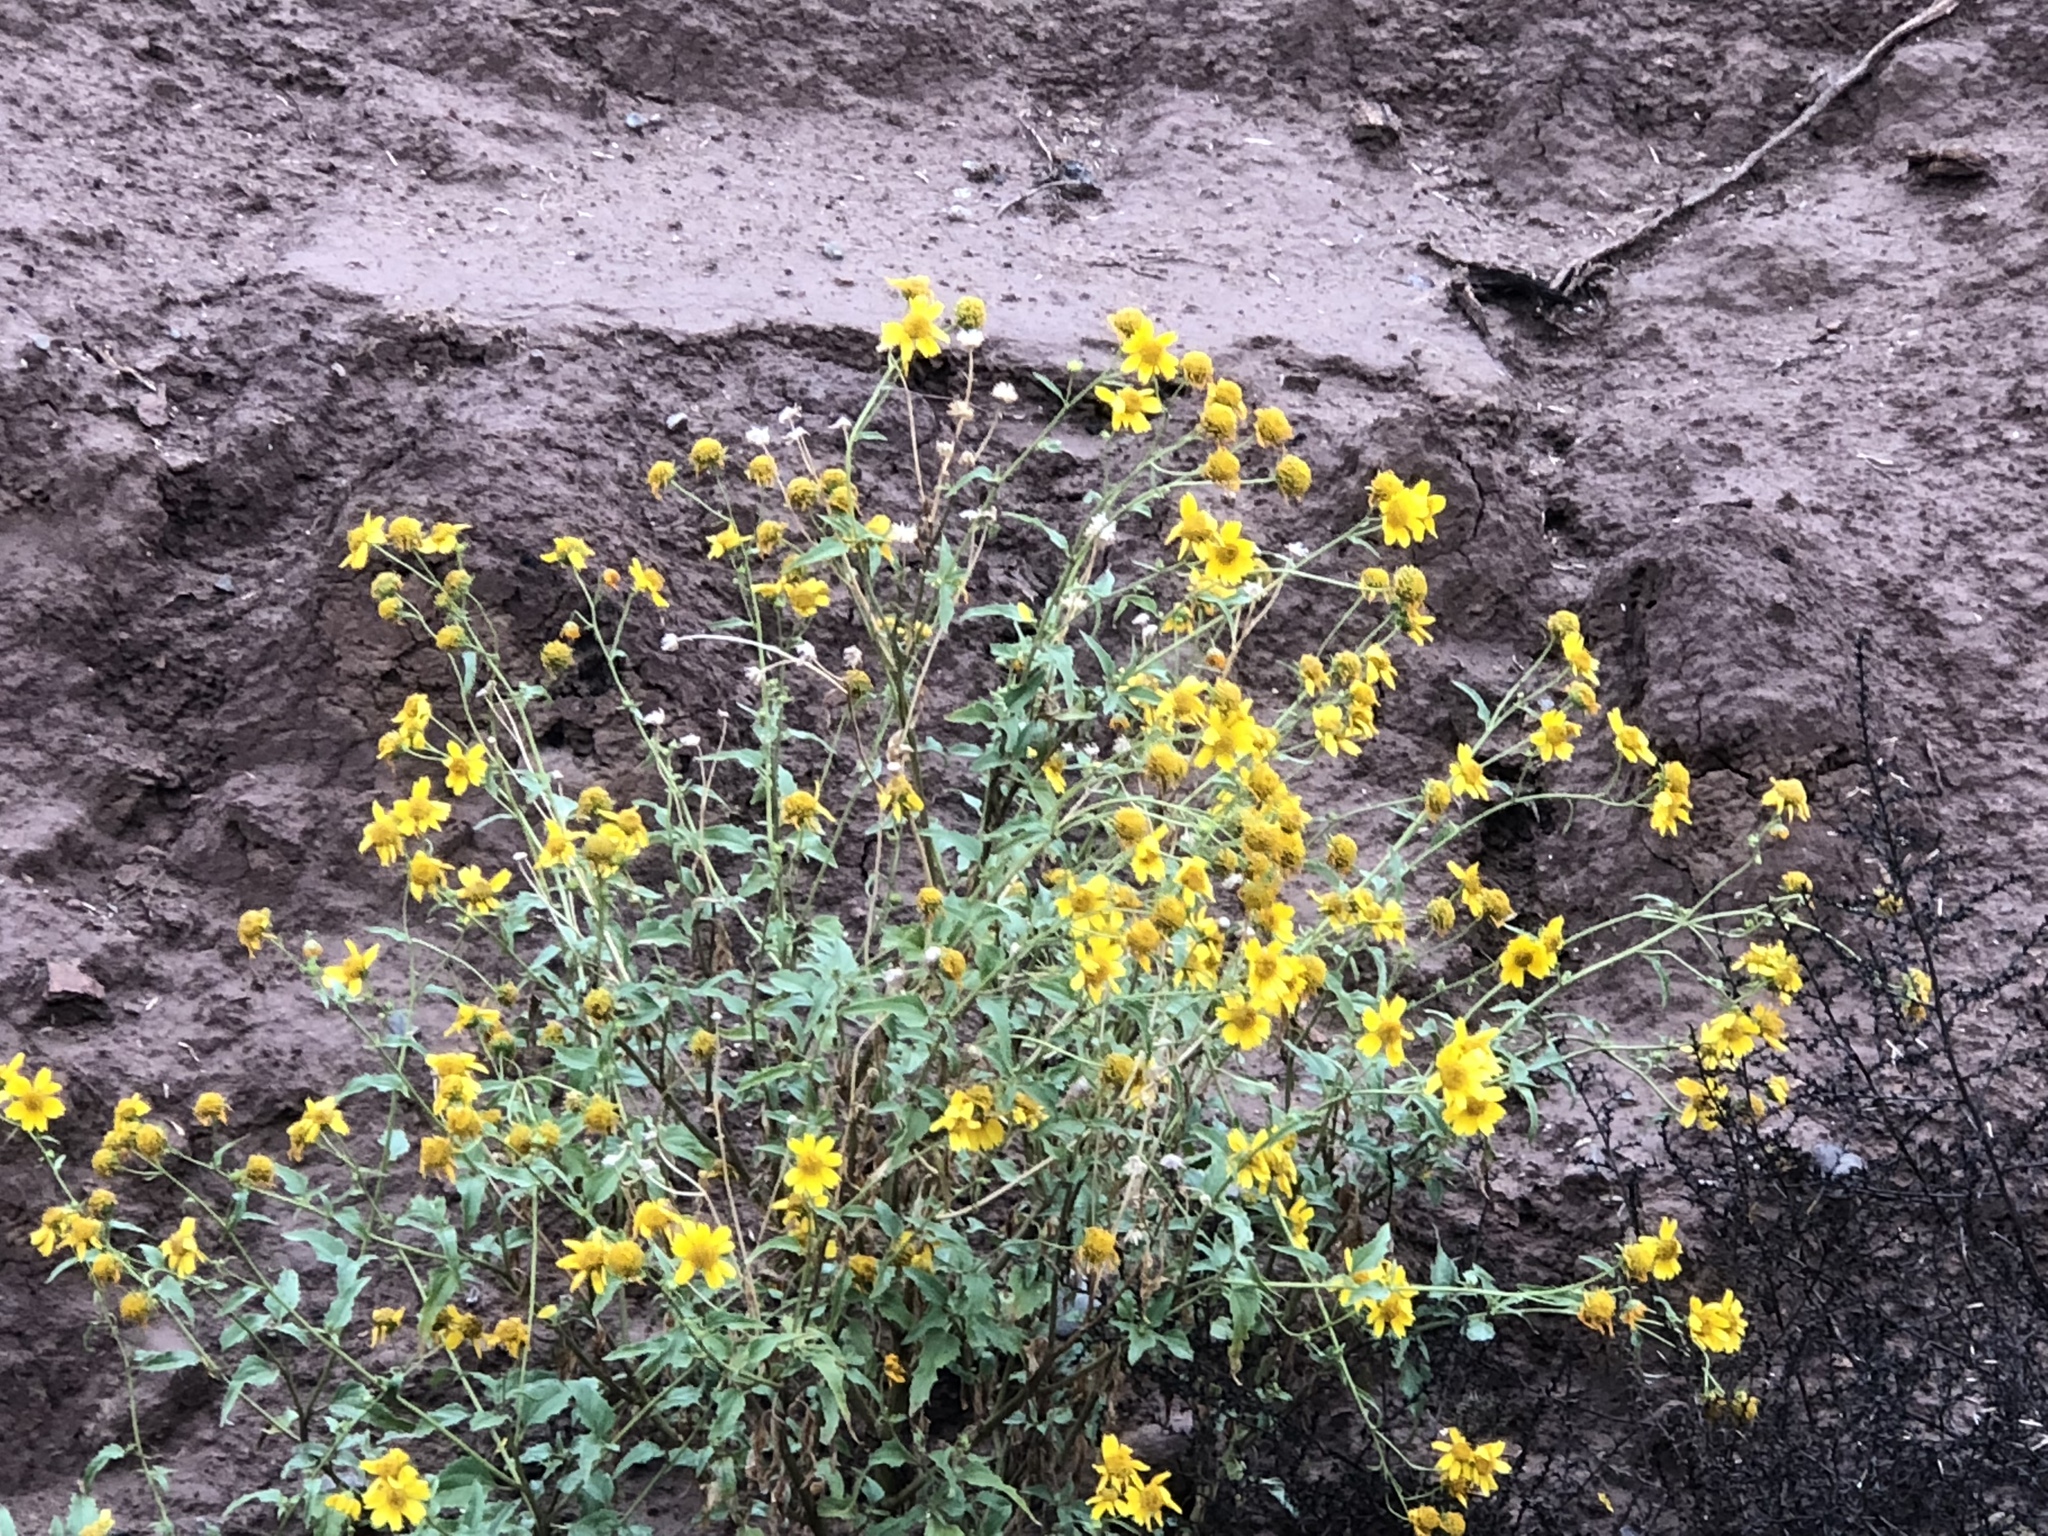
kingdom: Plantae
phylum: Tracheophyta
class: Magnoliopsida
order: Asterales
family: Asteraceae
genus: Verbesina
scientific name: Verbesina encelioides
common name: Golden crownbeard
